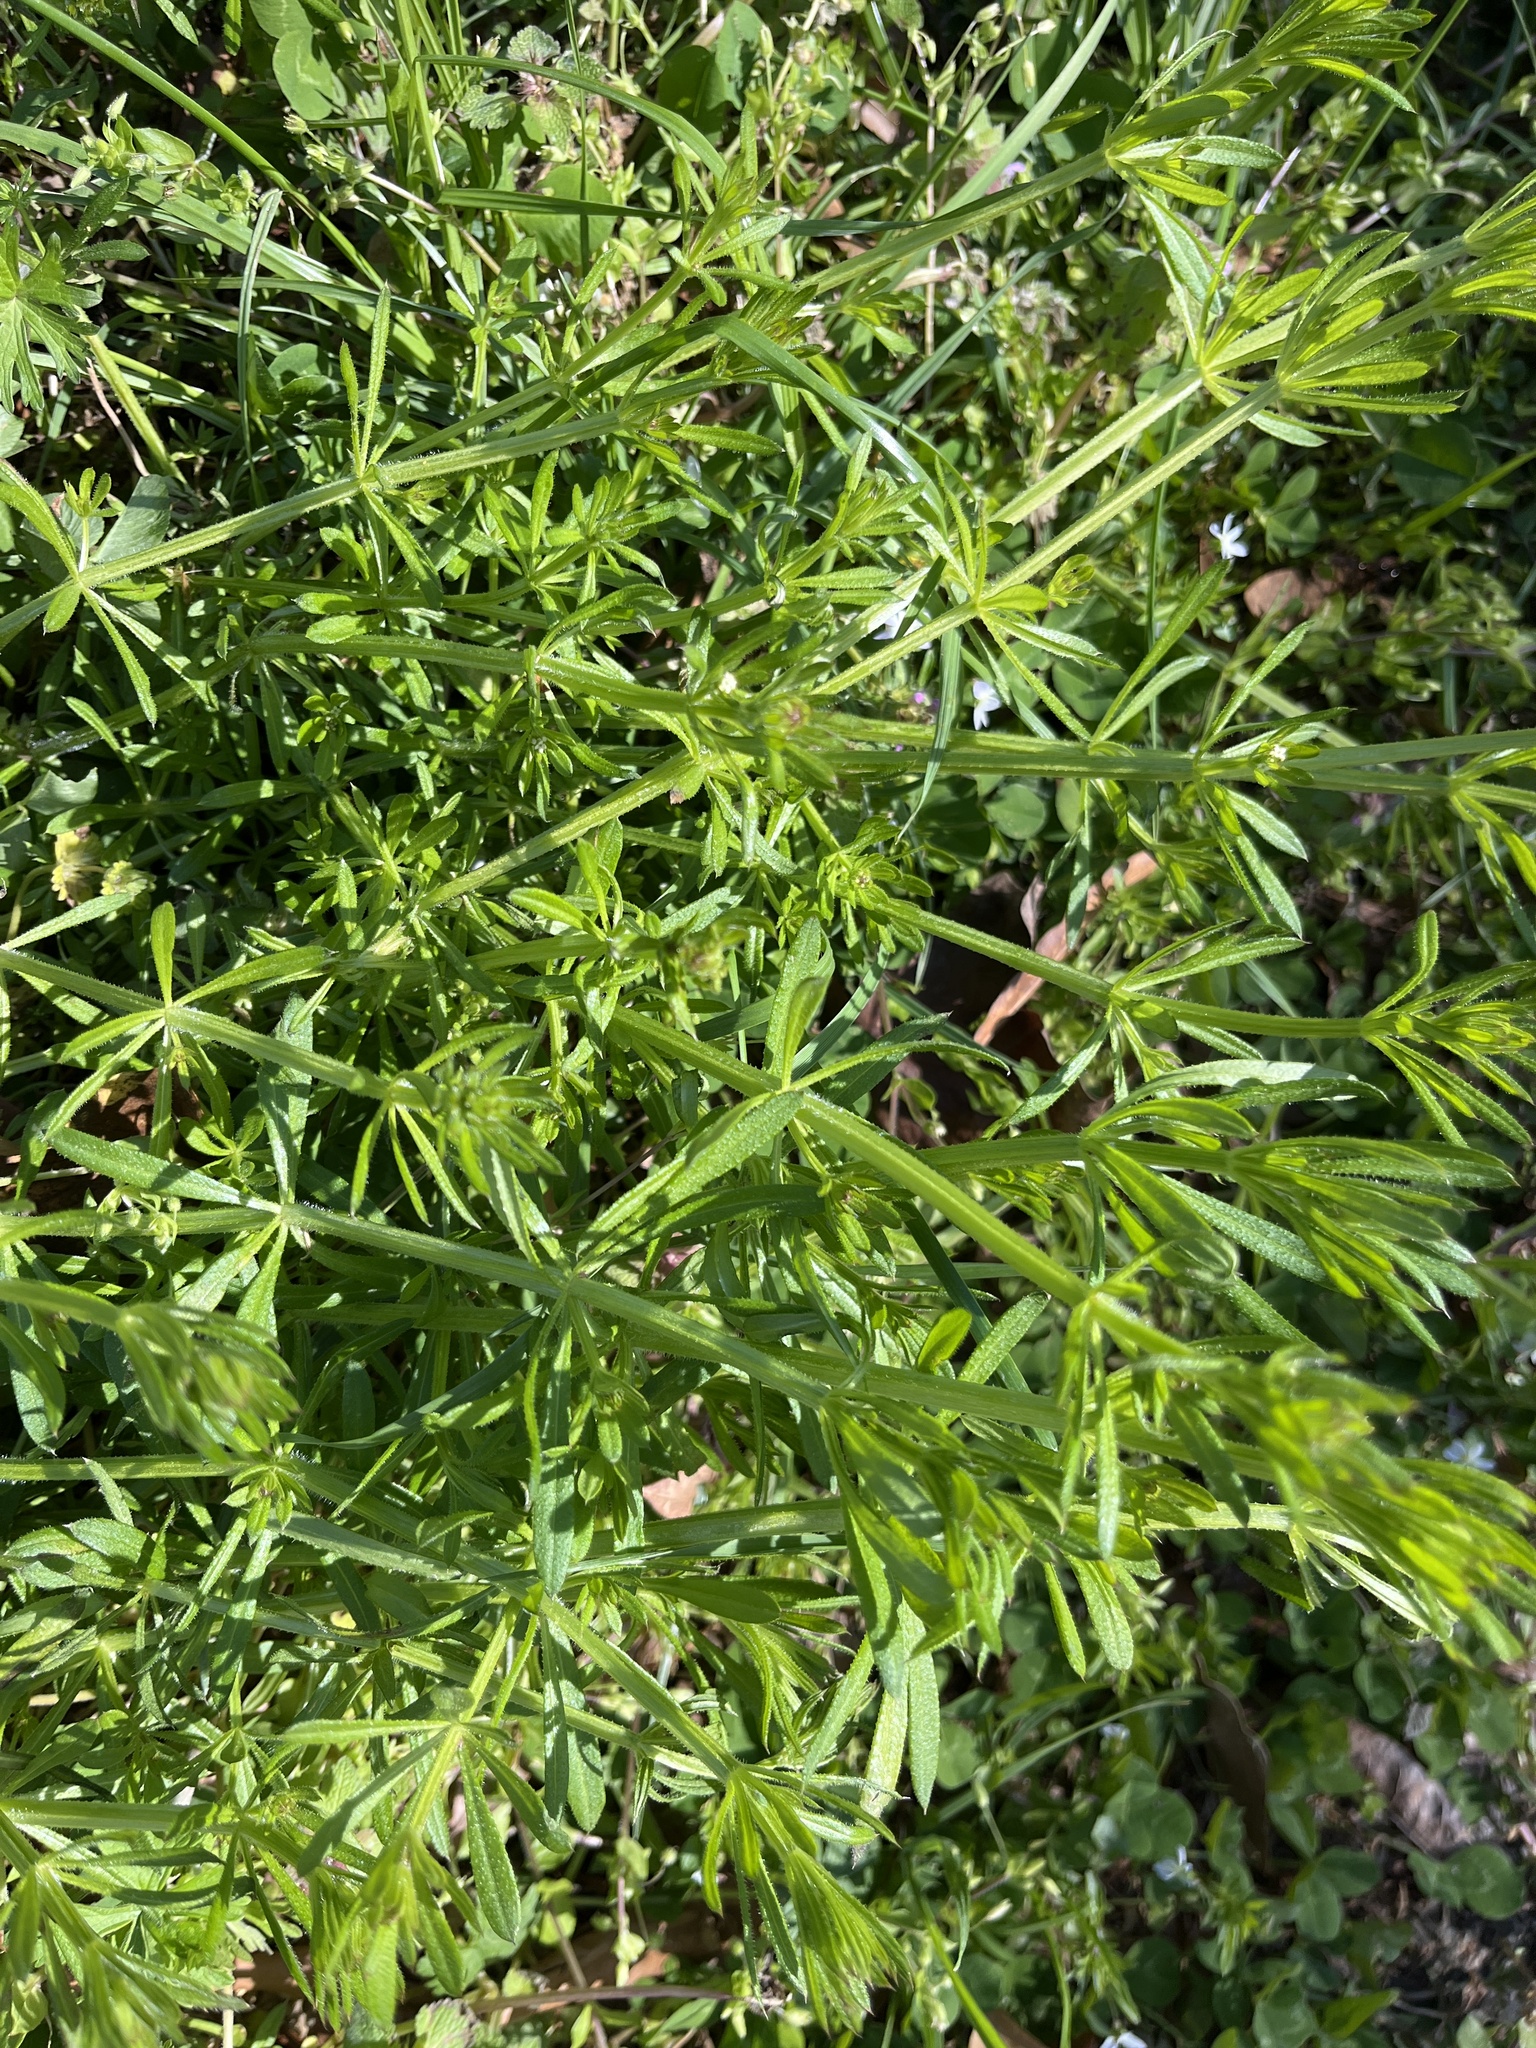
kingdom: Plantae
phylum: Tracheophyta
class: Magnoliopsida
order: Gentianales
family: Rubiaceae
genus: Galium
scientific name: Galium aparine
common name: Cleavers
